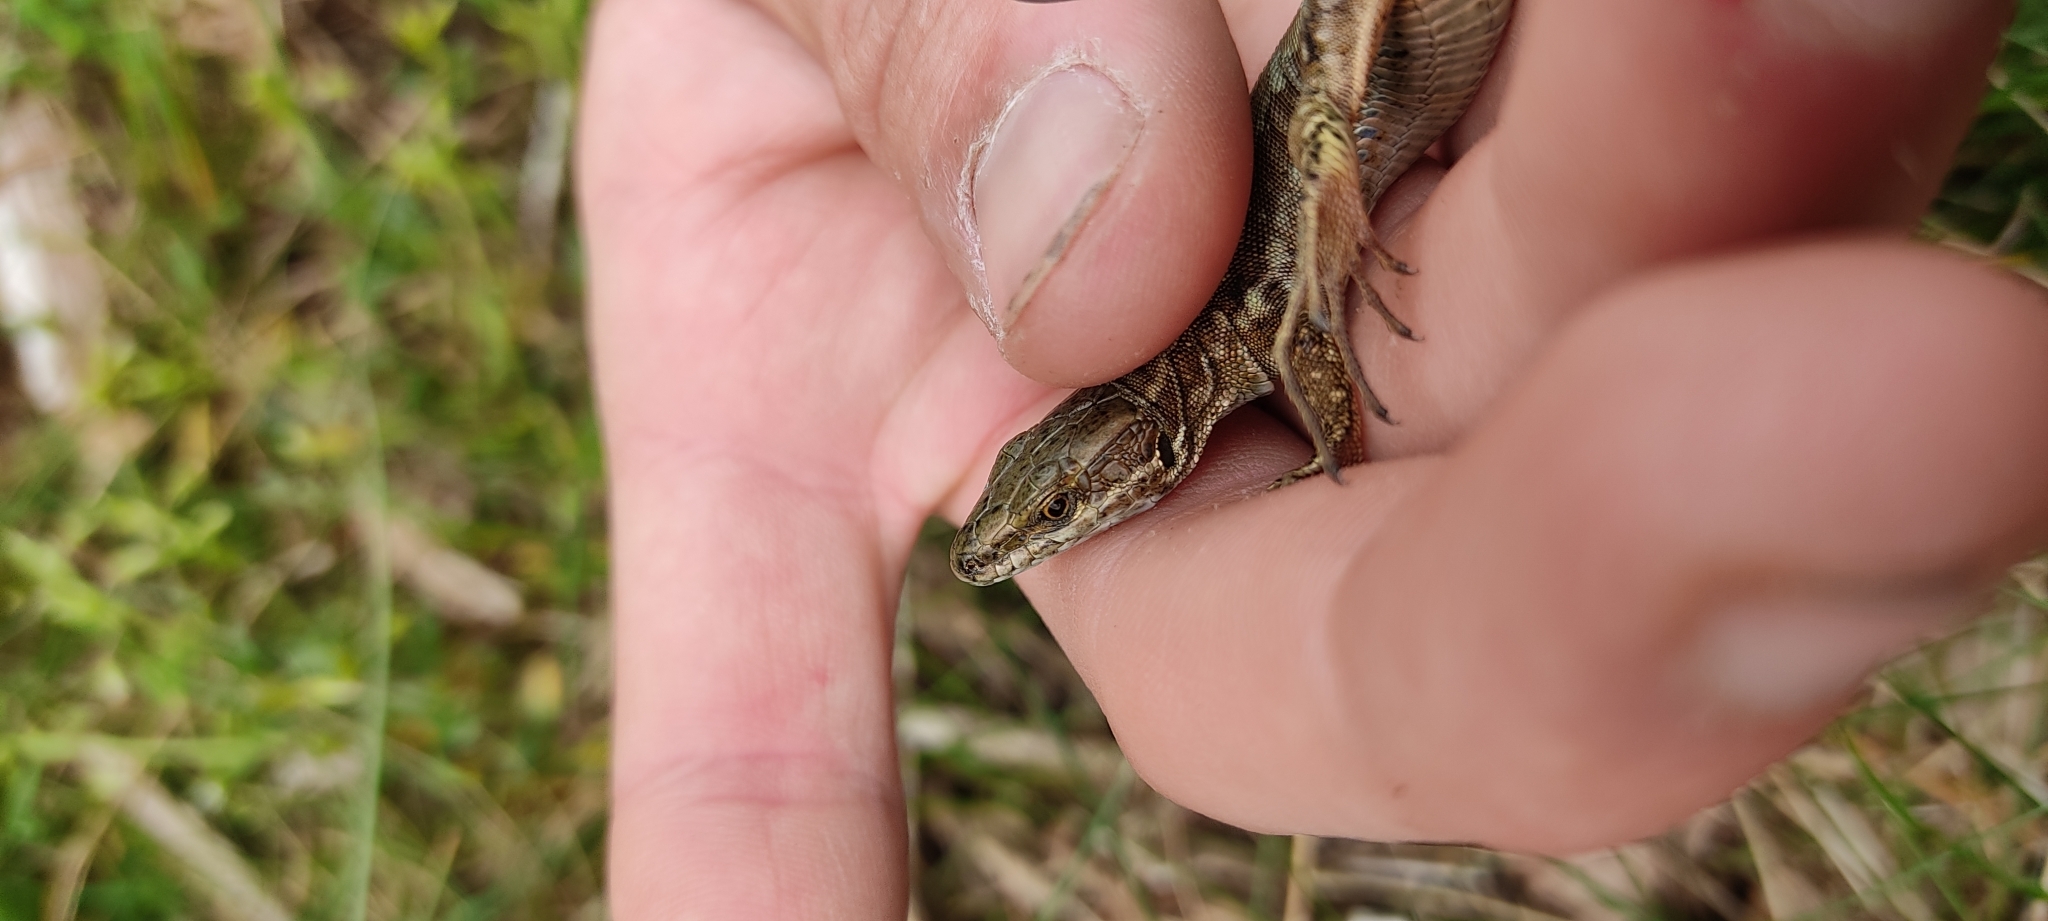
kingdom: Animalia
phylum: Chordata
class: Squamata
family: Lacertidae
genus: Podarcis
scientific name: Podarcis muralis
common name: Common wall lizard
